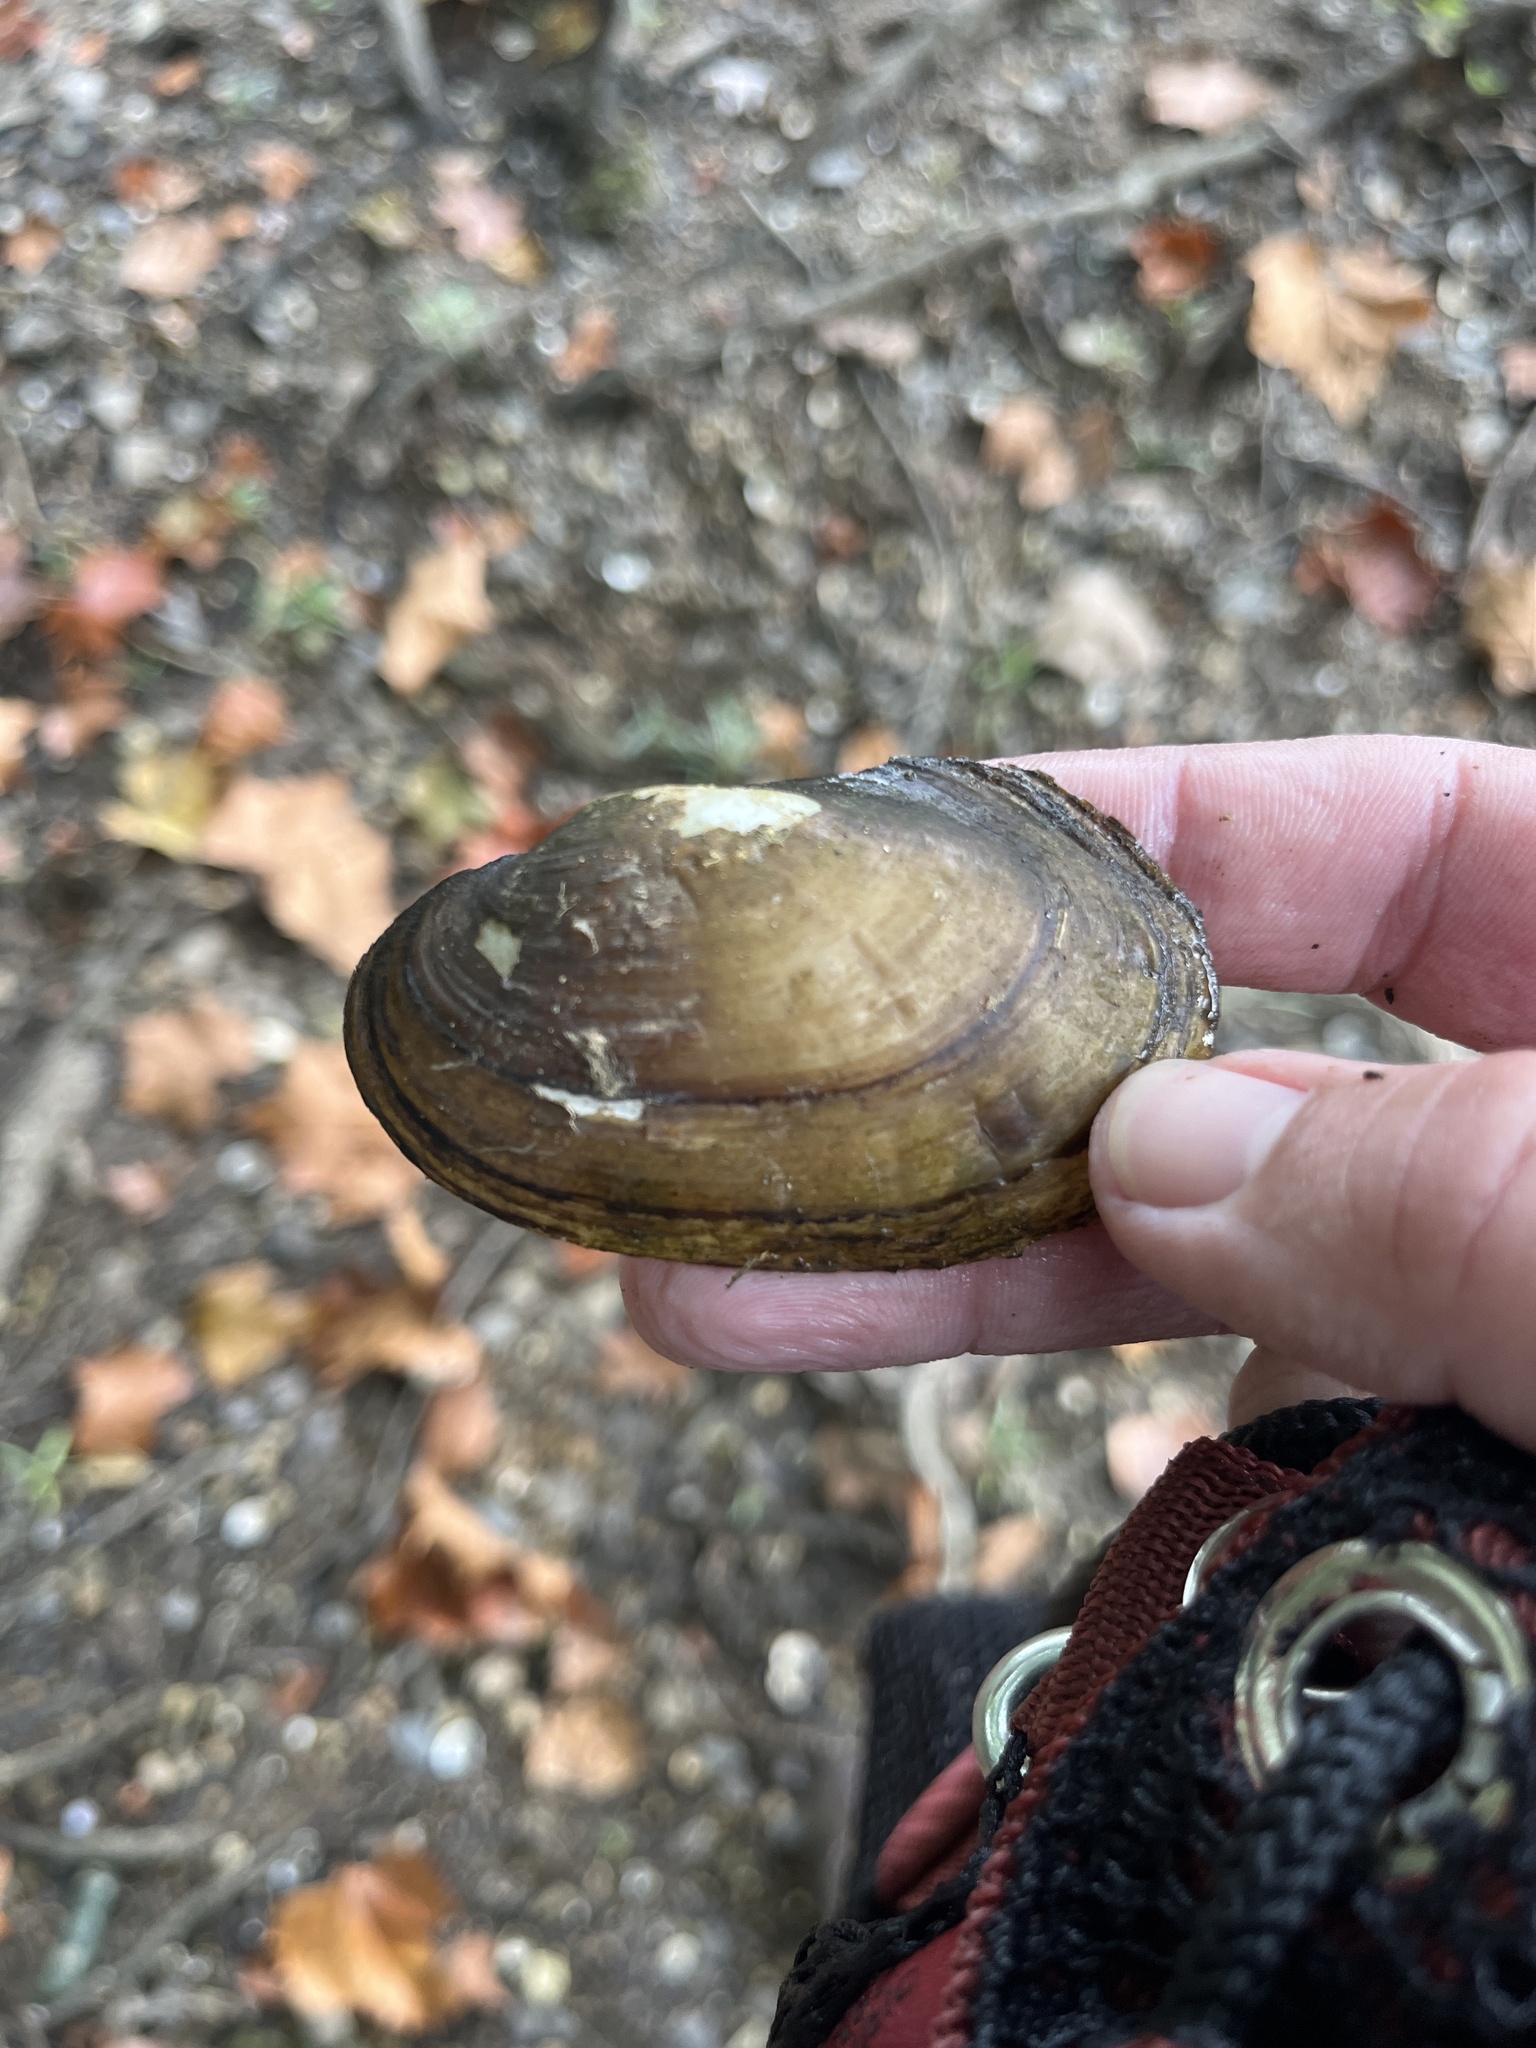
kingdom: Animalia
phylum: Mollusca
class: Bivalvia
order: Unionida
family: Unionidae
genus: Lampsilis
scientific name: Lampsilis siliquoidea
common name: Fatmucket
